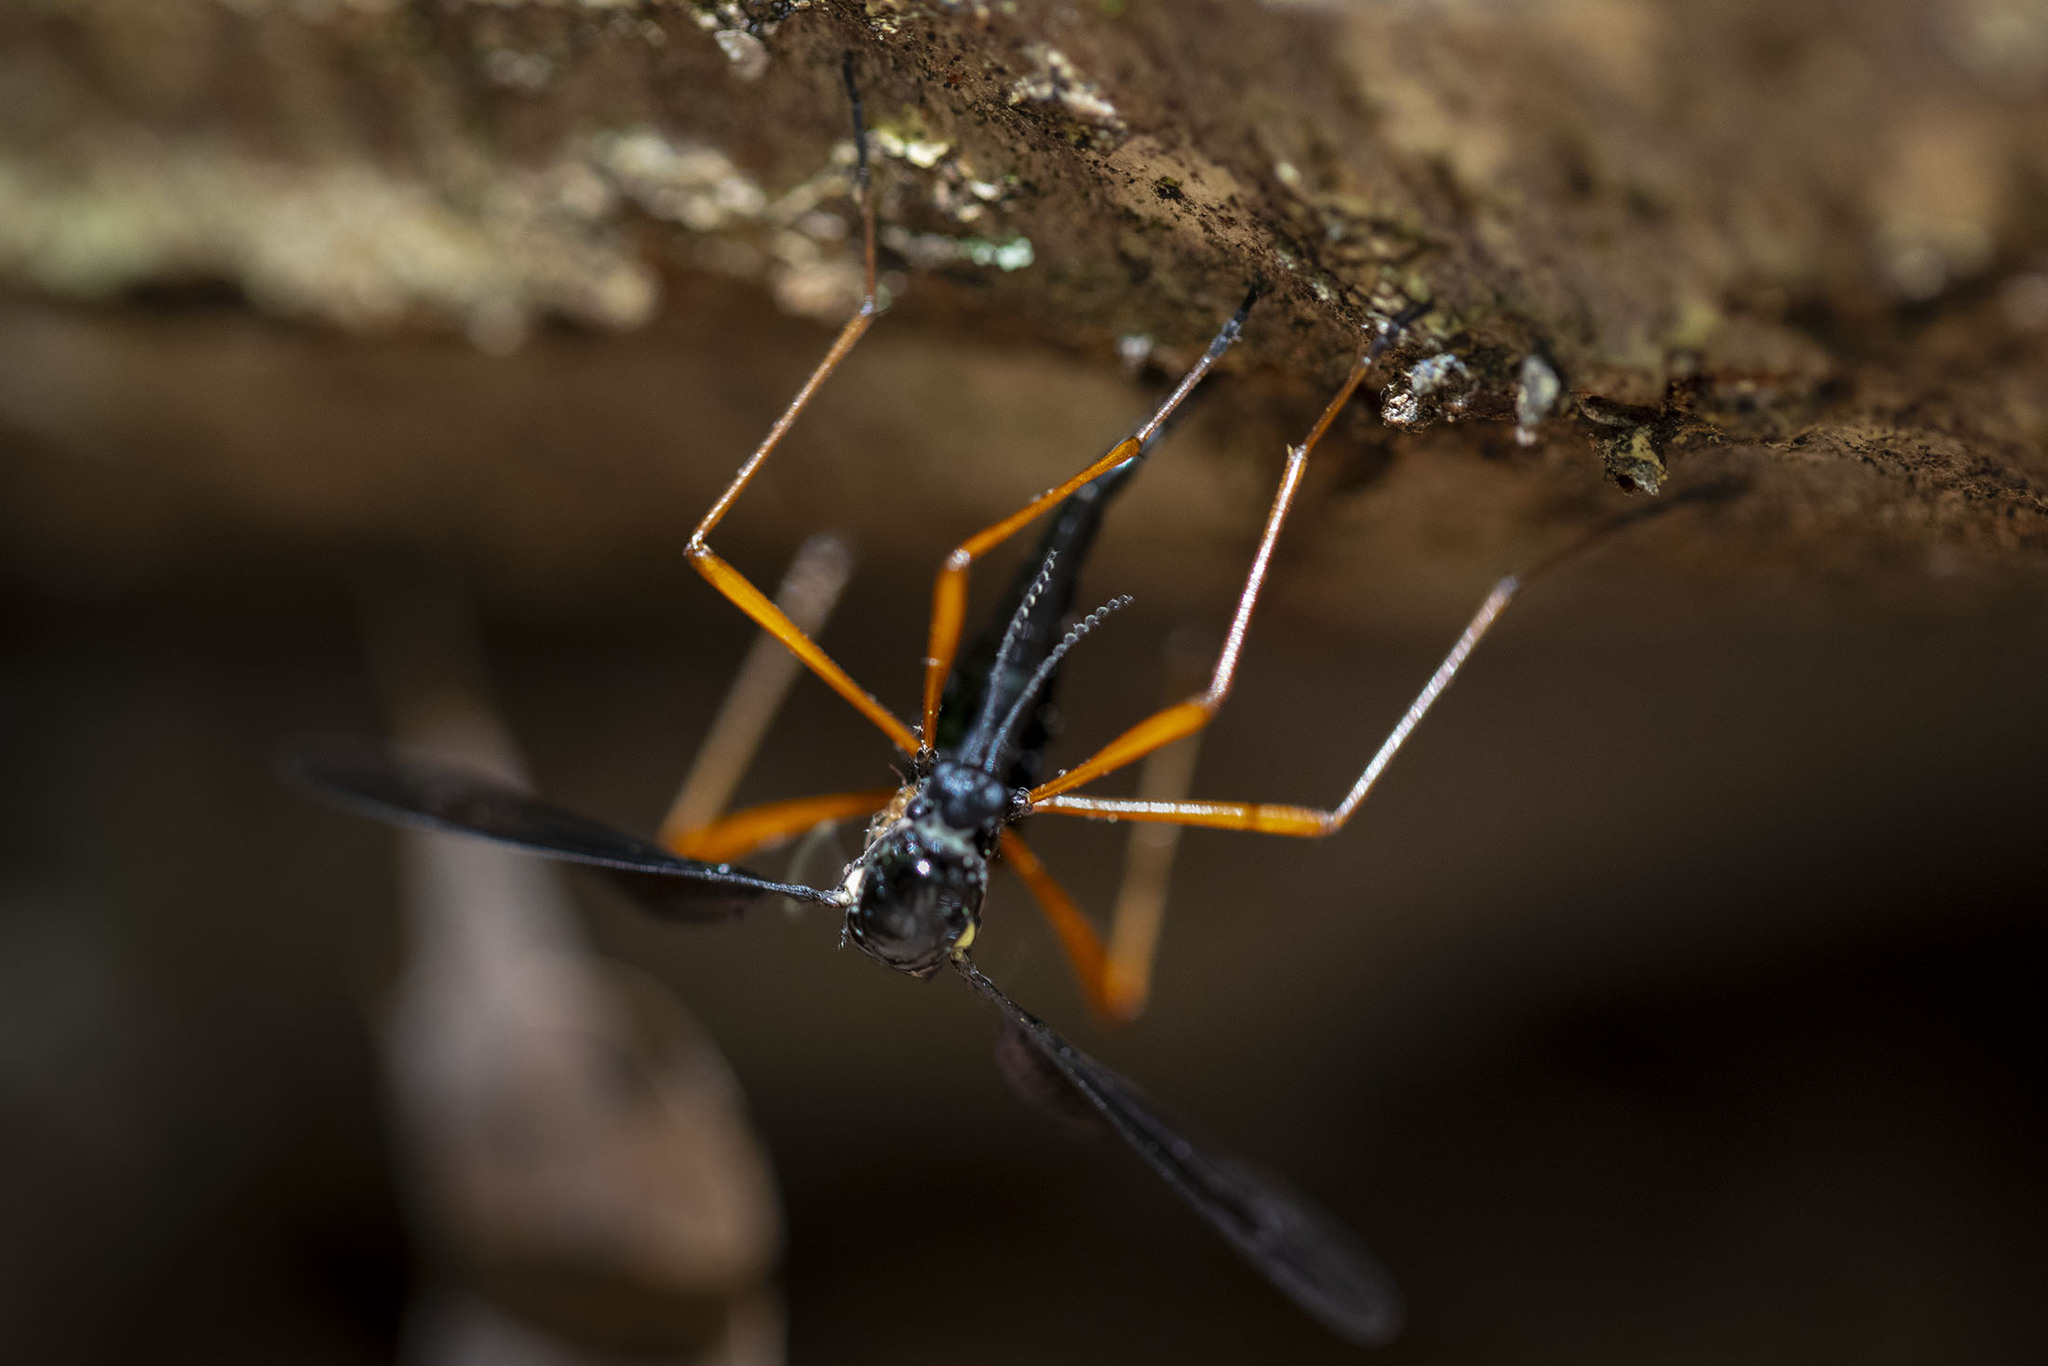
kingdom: Animalia
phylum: Arthropoda
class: Insecta
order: Diptera
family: Tipulidae
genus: Tanyptera
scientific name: Tanyptera dorsalis
